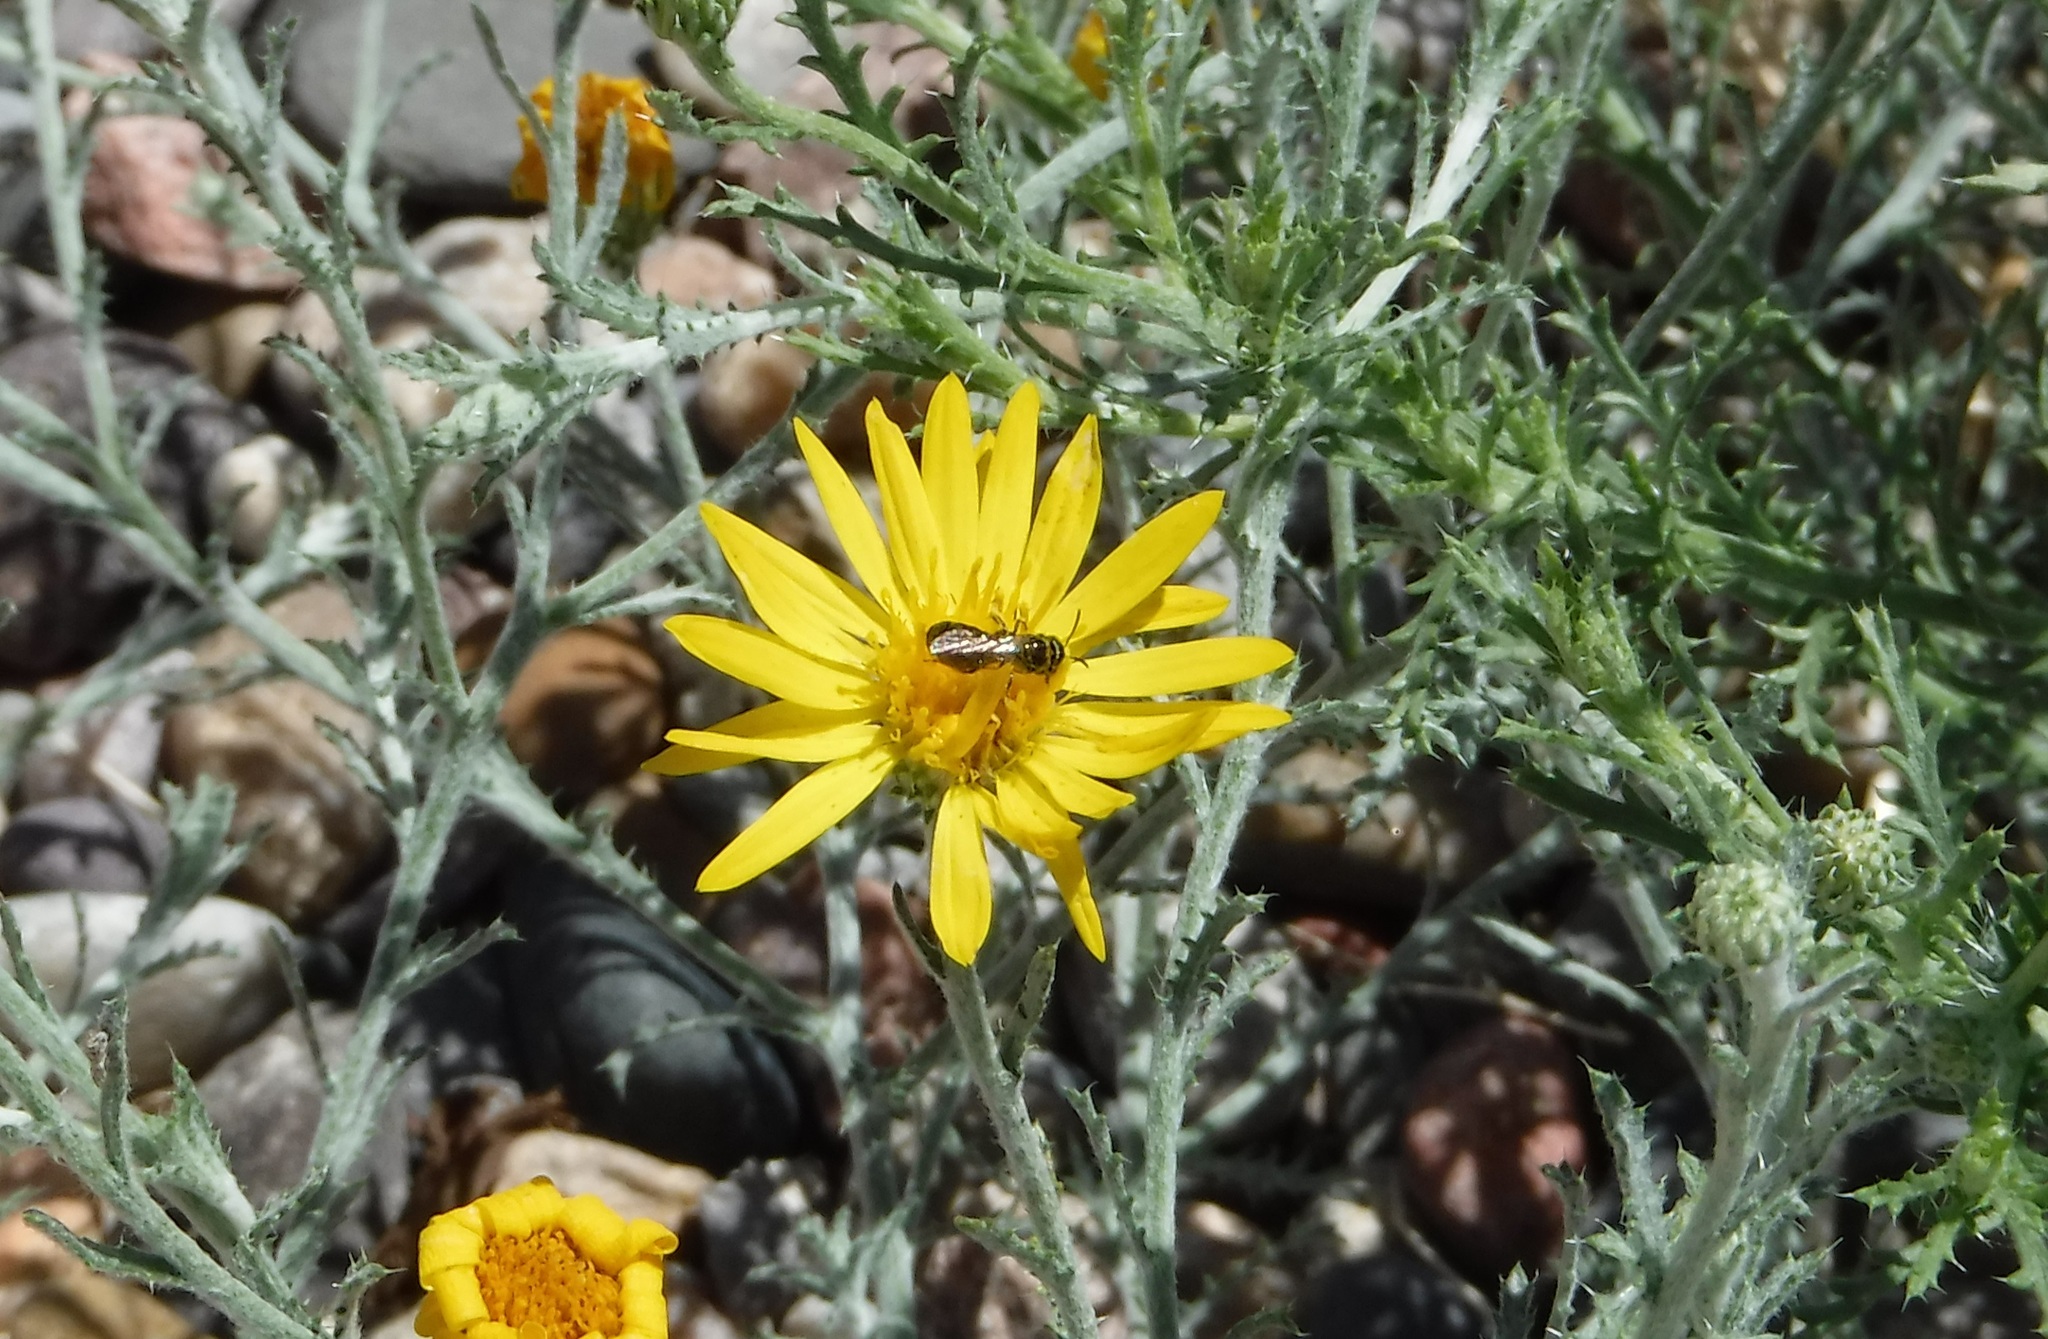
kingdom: Animalia
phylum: Arthropoda
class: Insecta
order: Hymenoptera
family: Apidae
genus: Zadontomerus
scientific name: Zadontomerus
